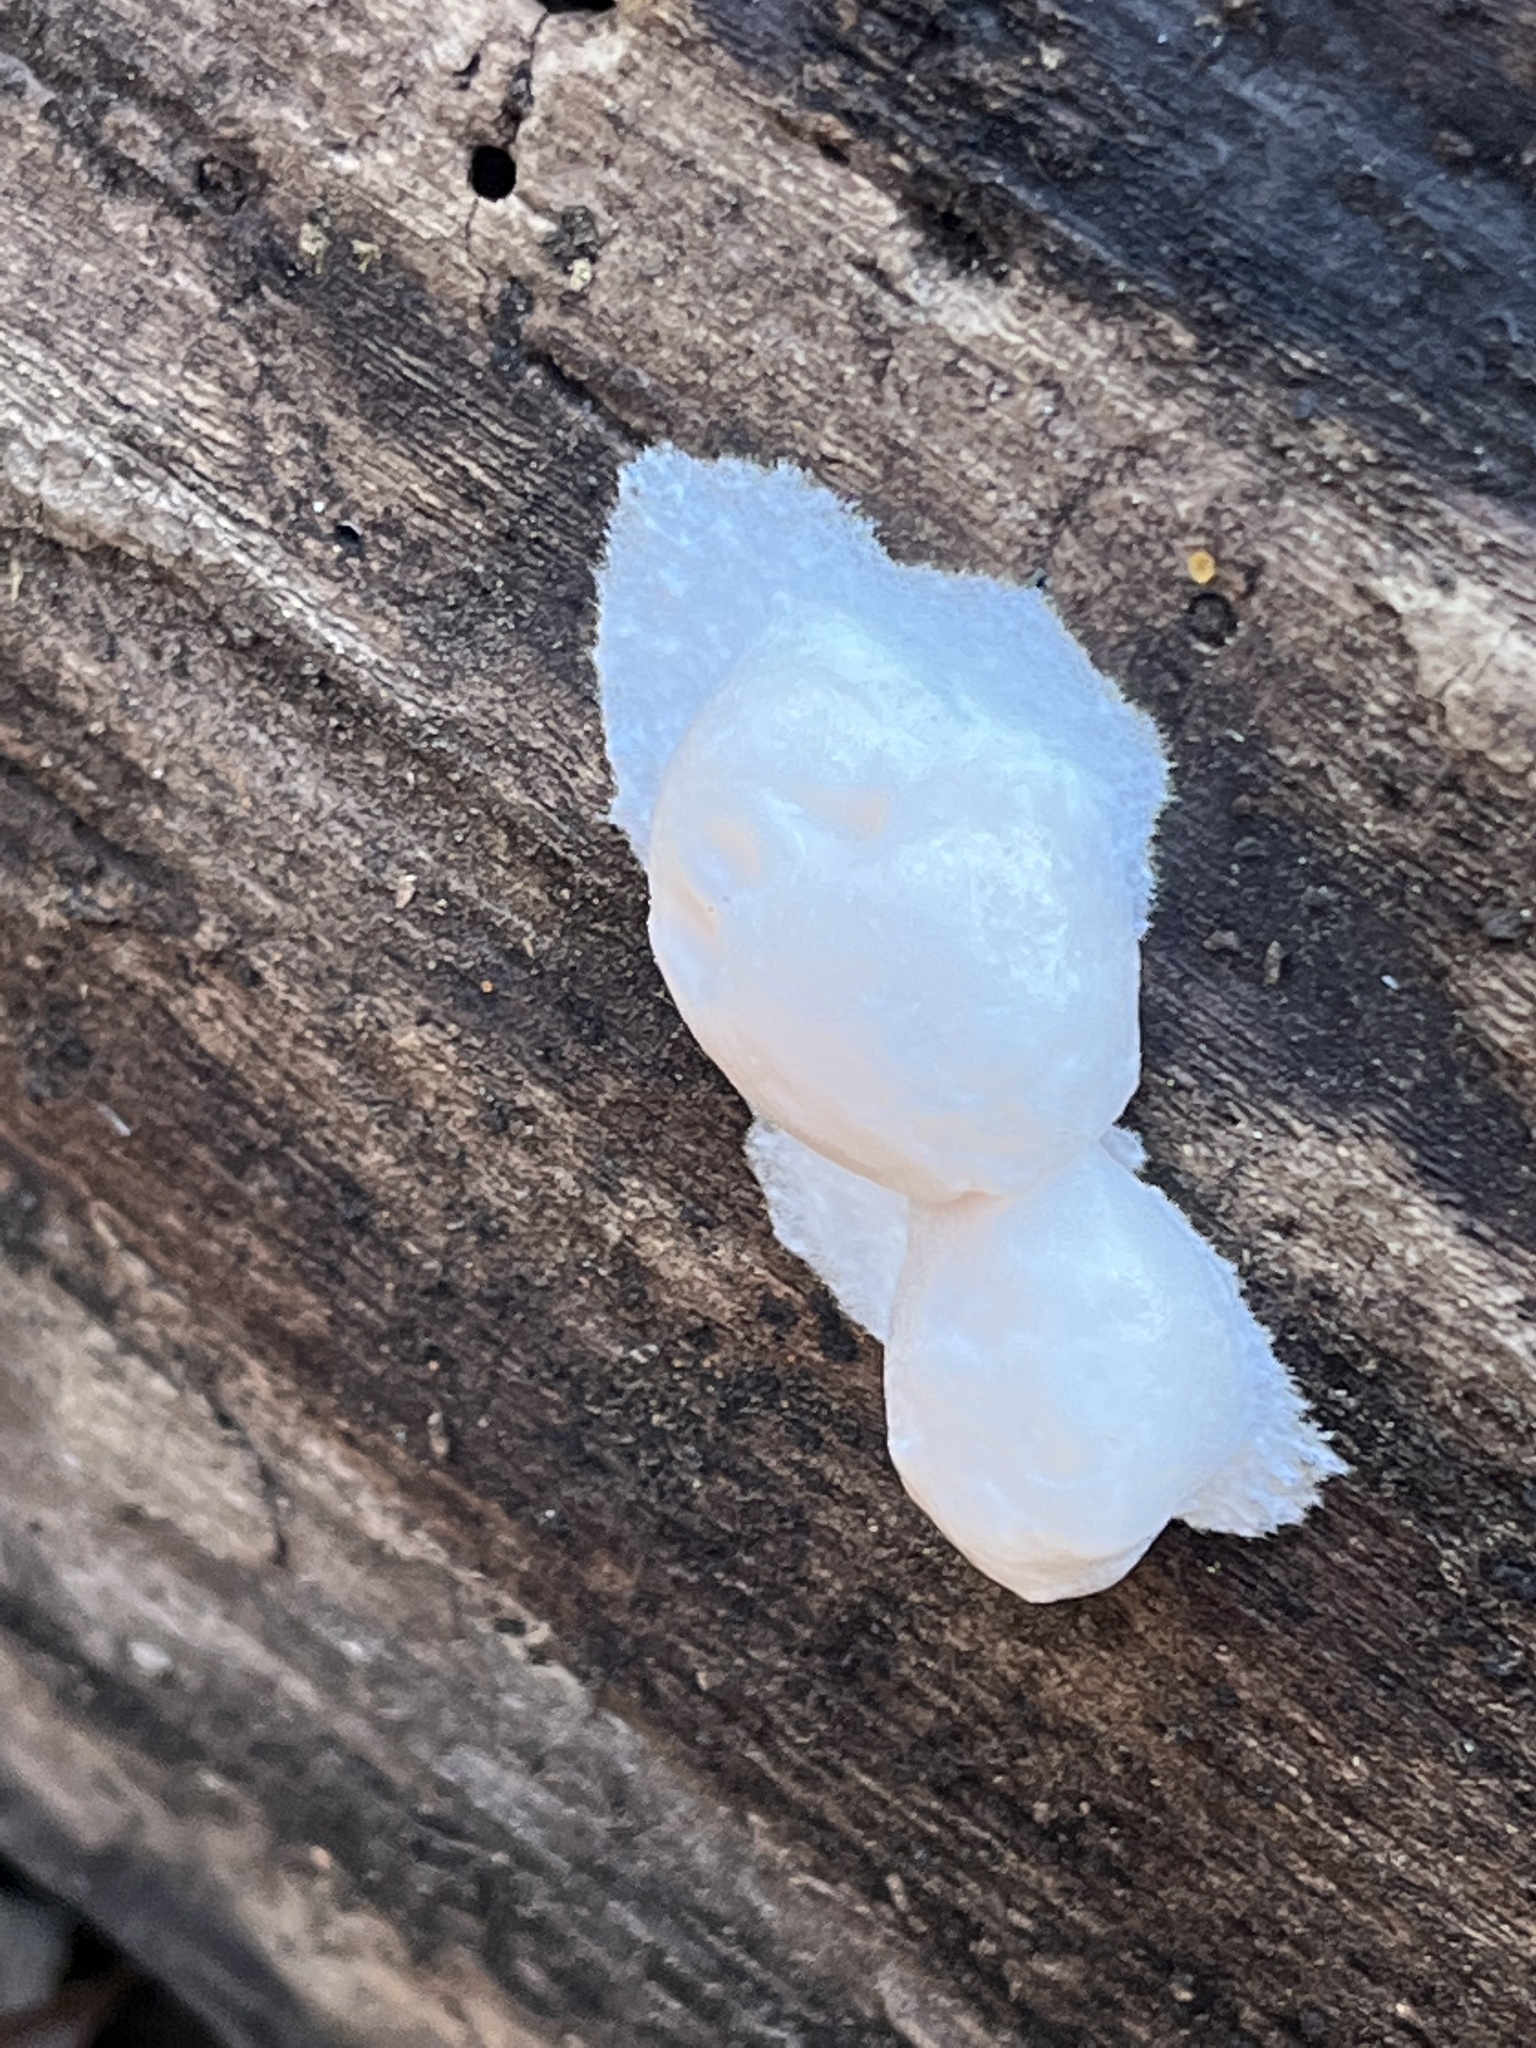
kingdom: Protozoa
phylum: Mycetozoa
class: Myxomycetes
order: Cribrariales
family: Tubiferaceae
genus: Reticularia
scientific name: Reticularia lycoperdon
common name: False puffball
